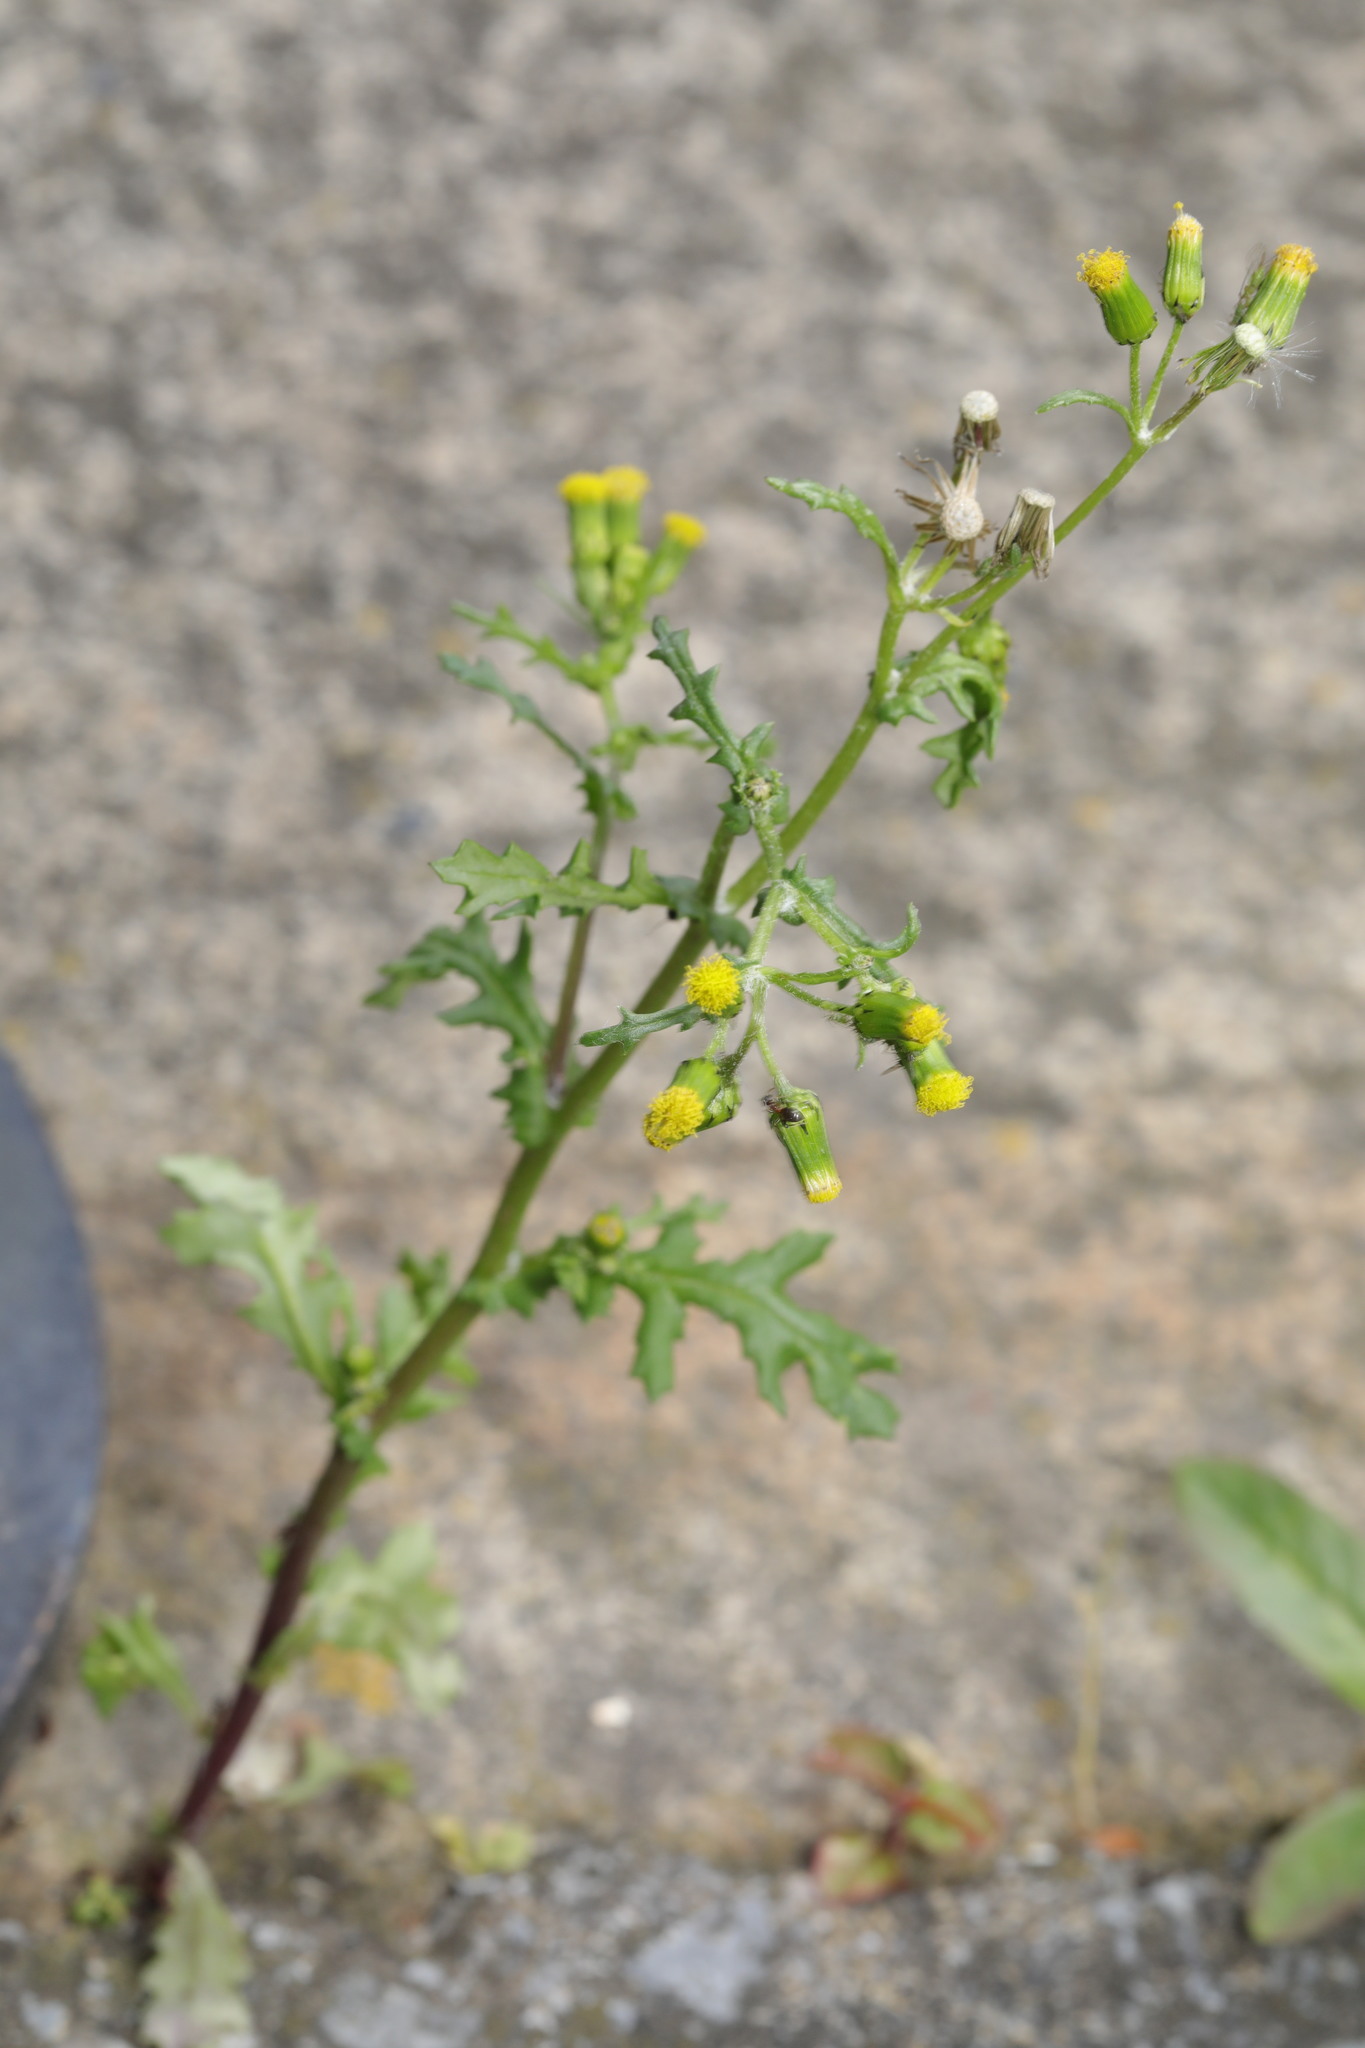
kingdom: Plantae
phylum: Tracheophyta
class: Magnoliopsida
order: Asterales
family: Asteraceae
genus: Senecio
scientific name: Senecio vulgaris
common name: Old-man-in-the-spring
